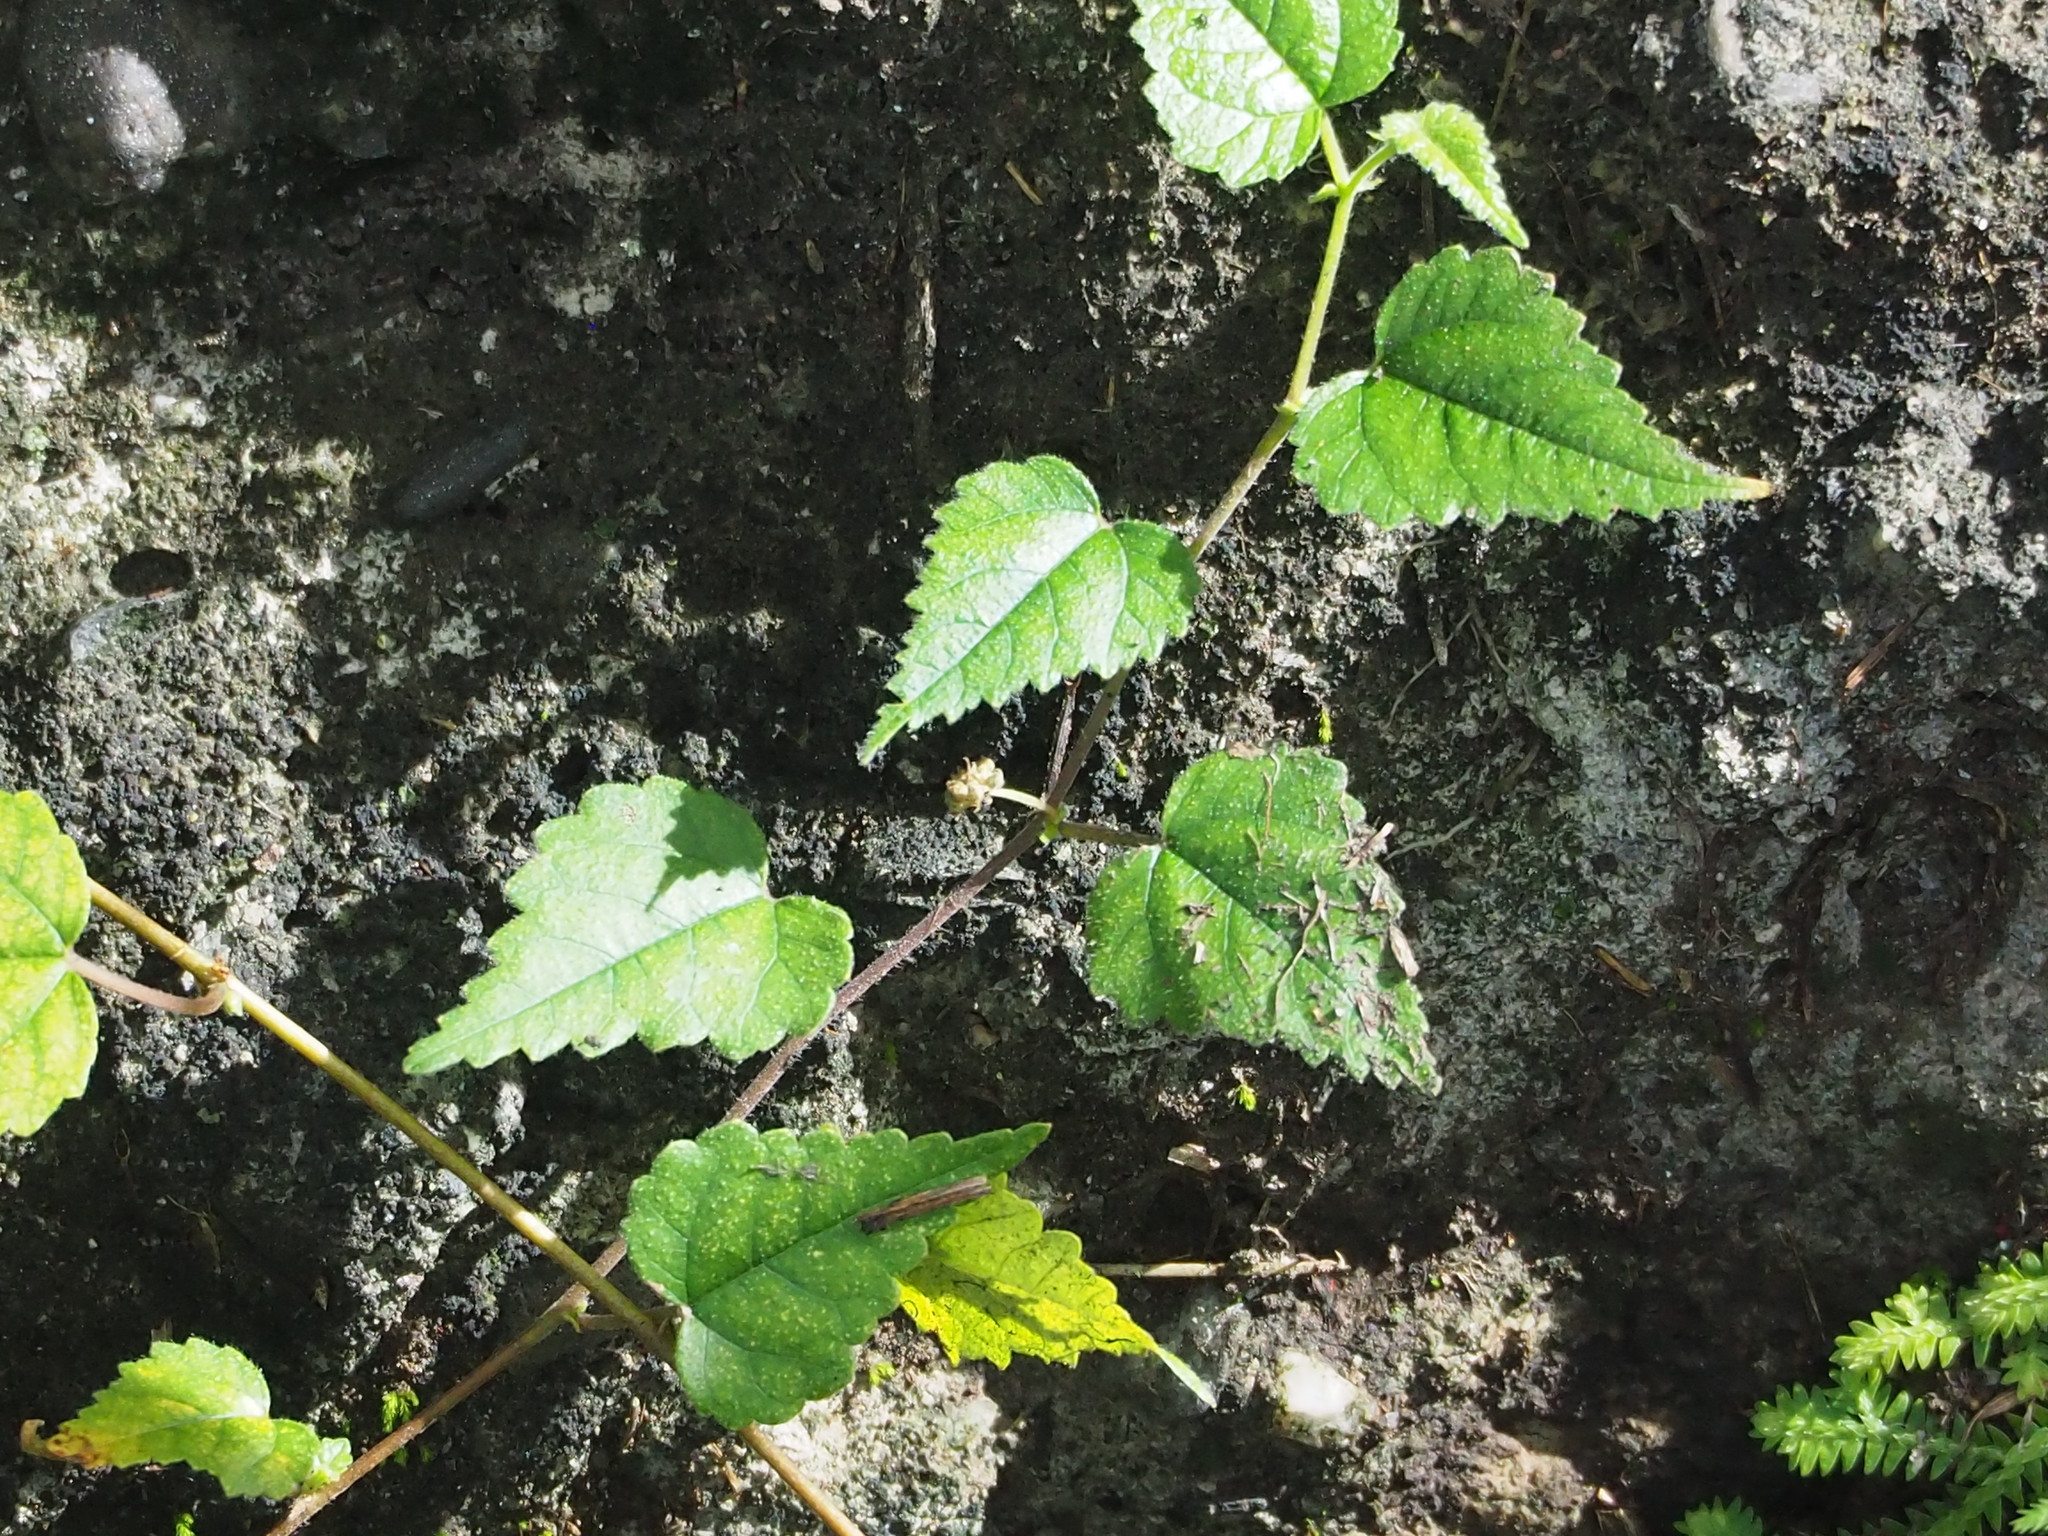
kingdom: Plantae
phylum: Tracheophyta
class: Magnoliopsida
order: Rosales
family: Moraceae
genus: Fatoua
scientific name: Fatoua villosa
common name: Hairy crabweed
